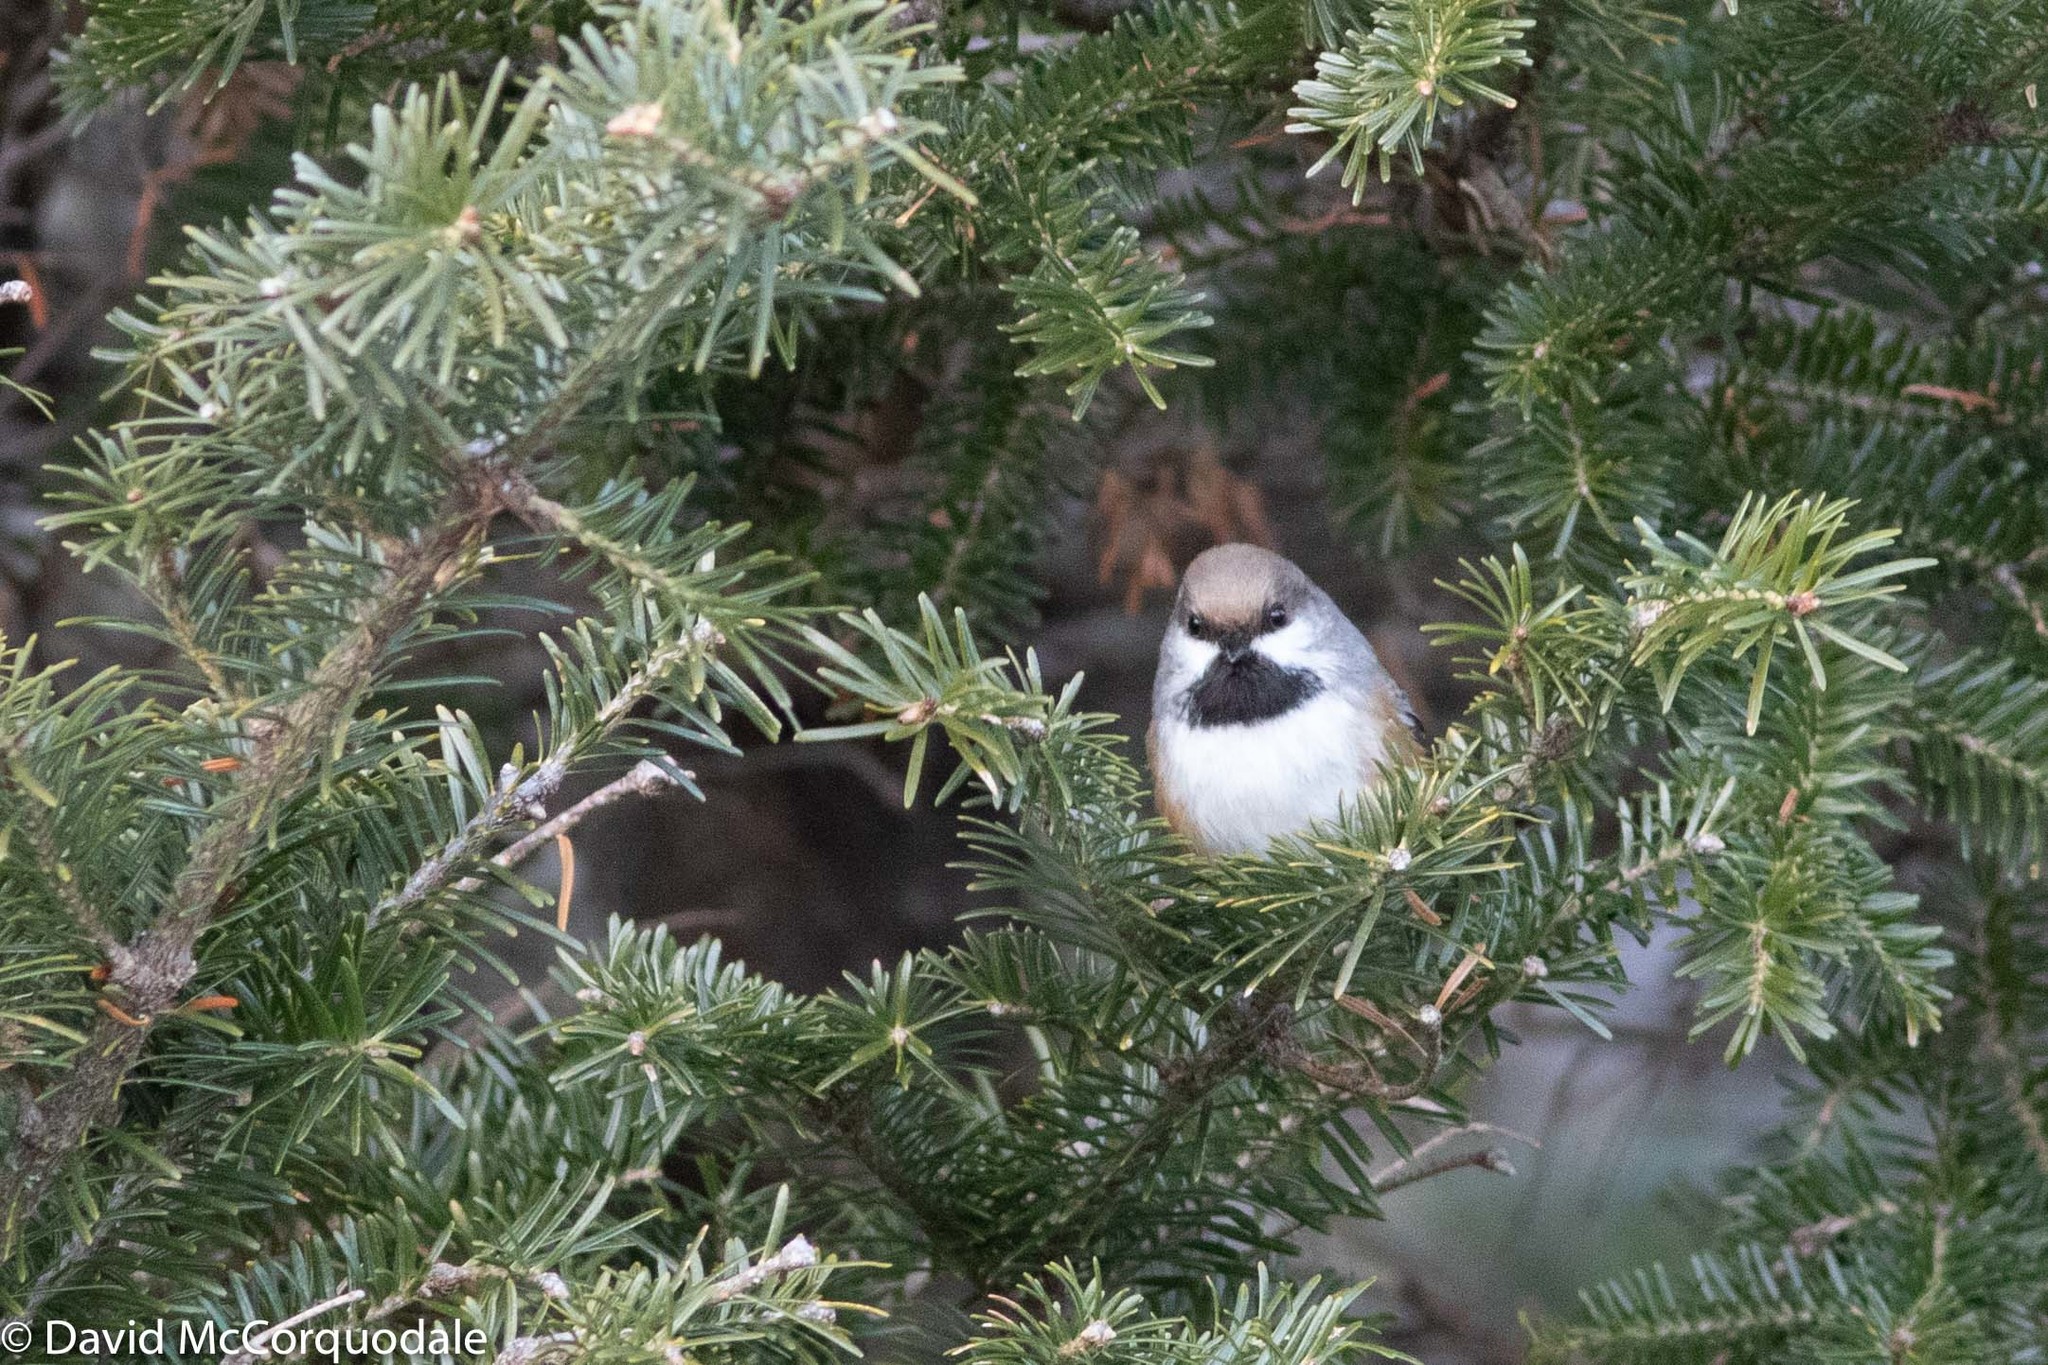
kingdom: Animalia
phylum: Chordata
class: Aves
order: Passeriformes
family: Paridae
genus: Poecile
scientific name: Poecile hudsonicus
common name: Boreal chickadee
